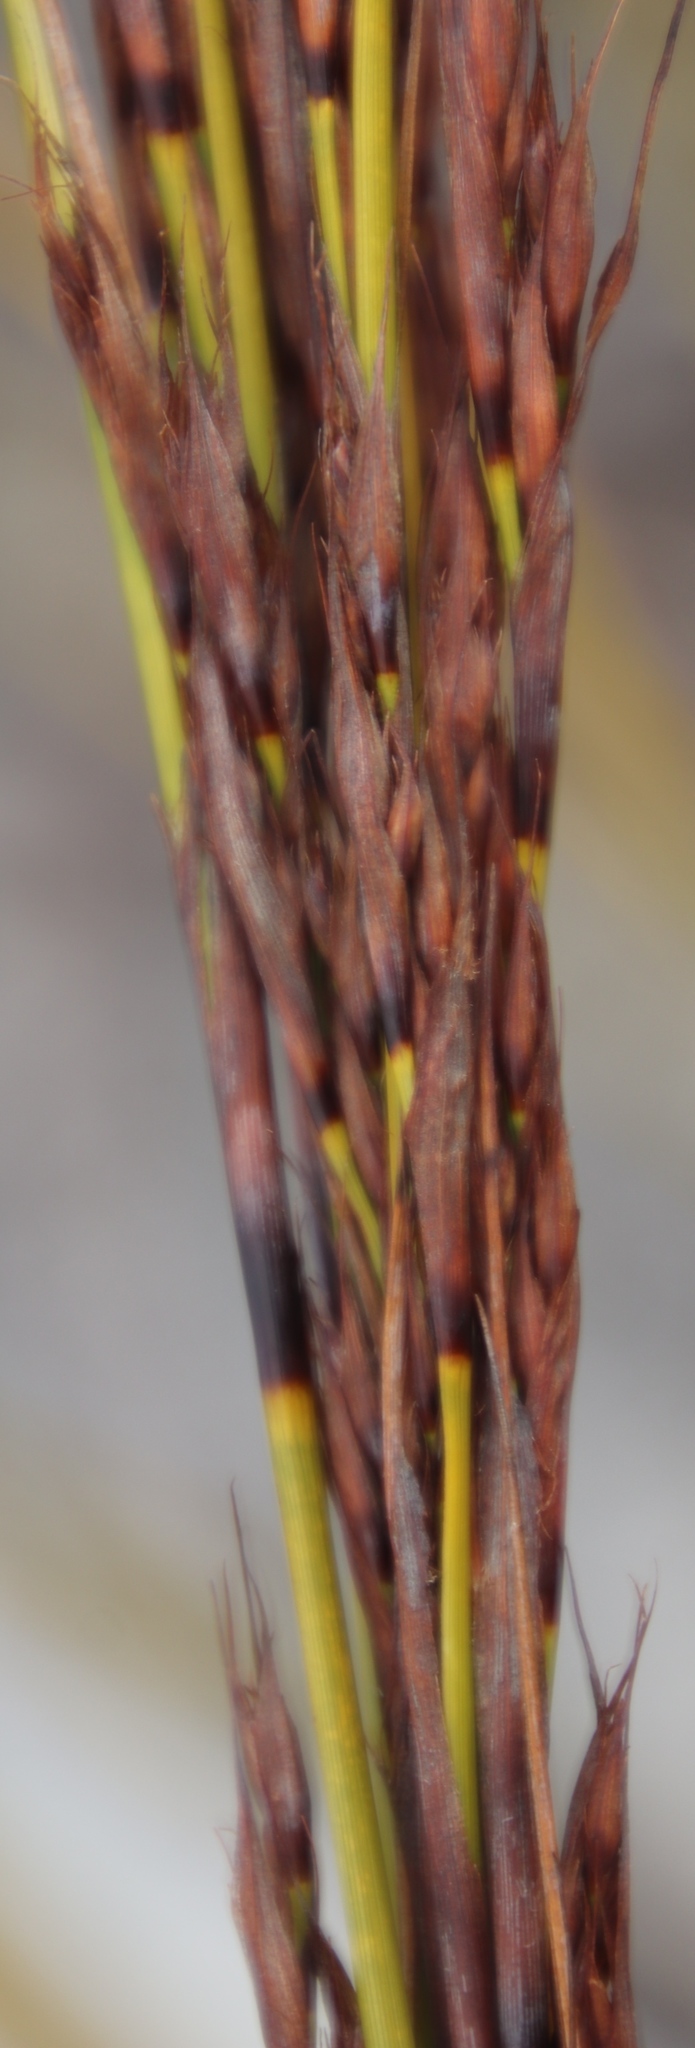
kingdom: Plantae
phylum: Tracheophyta
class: Liliopsida
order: Poales
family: Cyperaceae
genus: Tetraria
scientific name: Tetraria flexuosa
